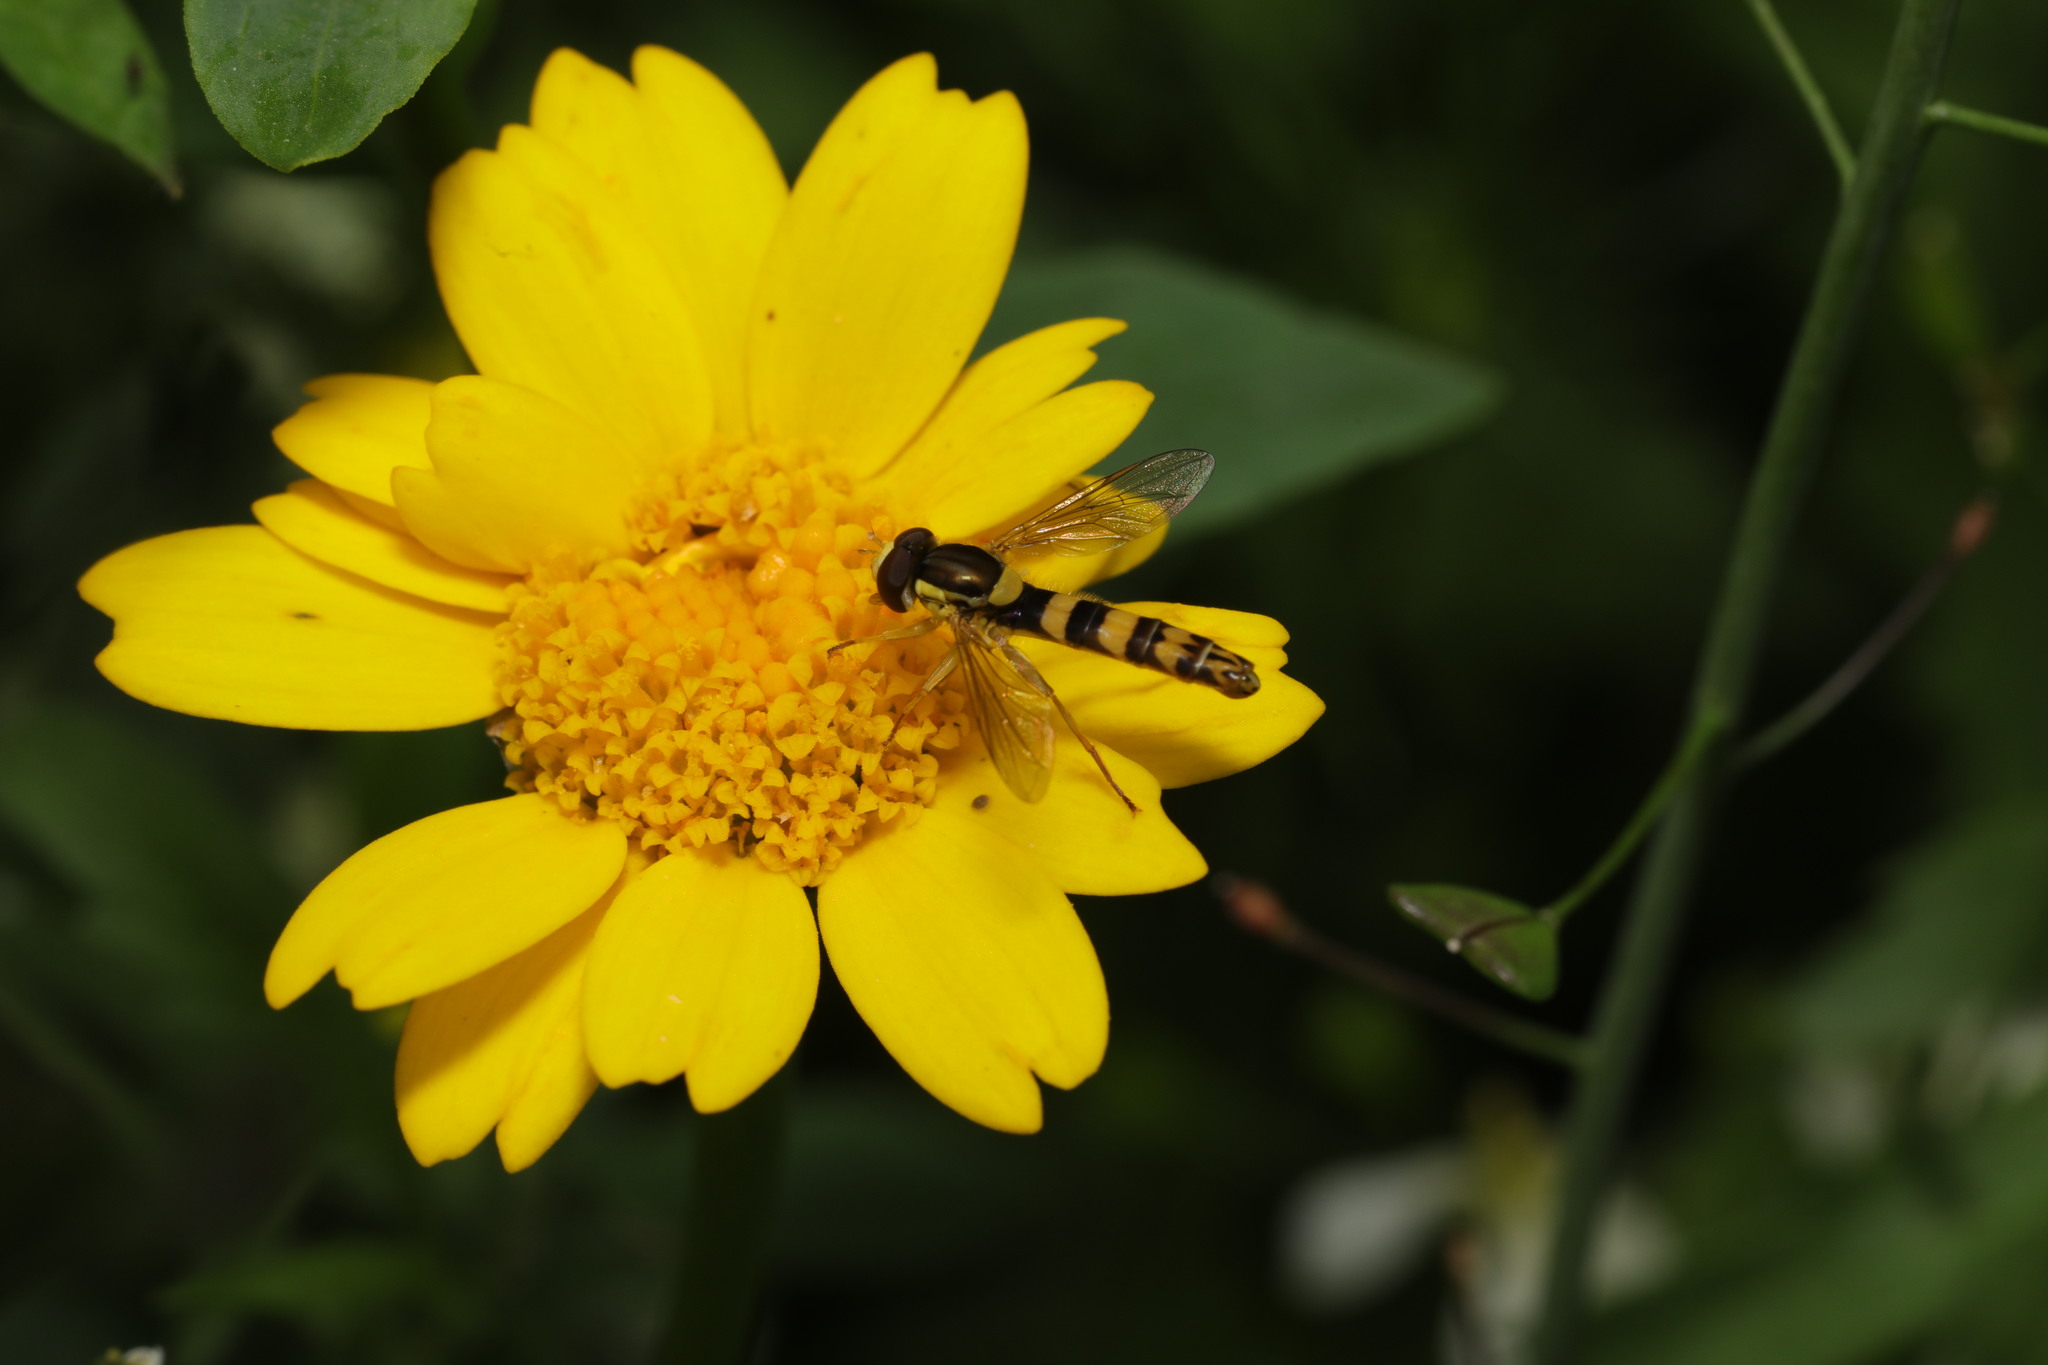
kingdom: Animalia
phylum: Arthropoda
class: Insecta
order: Diptera
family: Syrphidae
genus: Sphaerophoria
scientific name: Sphaerophoria scripta
